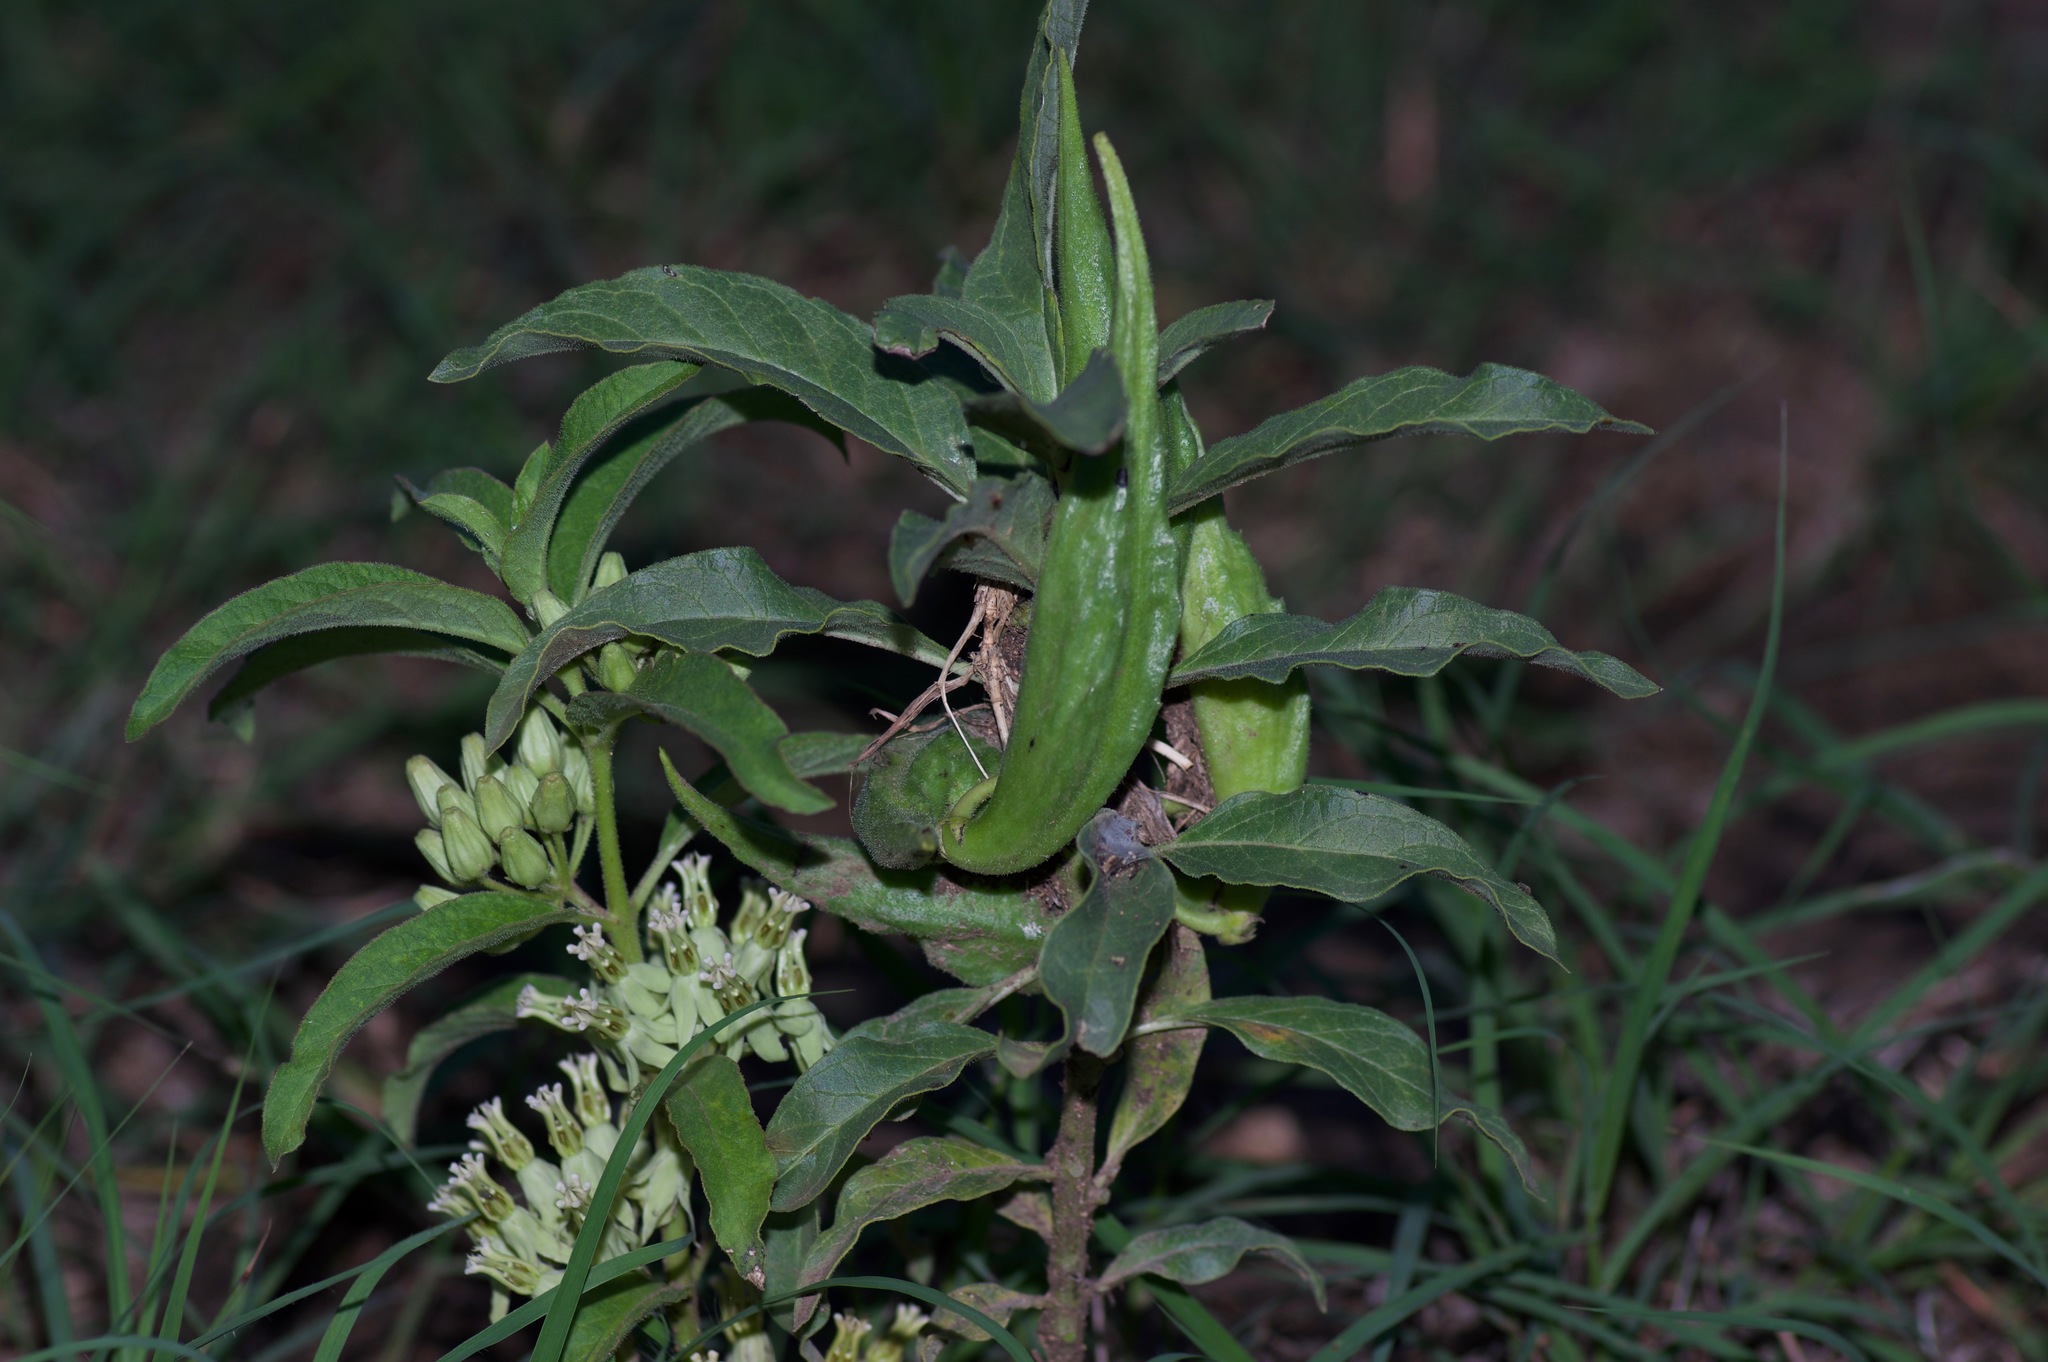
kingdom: Plantae
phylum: Tracheophyta
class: Magnoliopsida
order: Gentianales
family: Apocynaceae
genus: Asclepias
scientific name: Asclepias oenotheroides
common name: Zizotes milkweed
